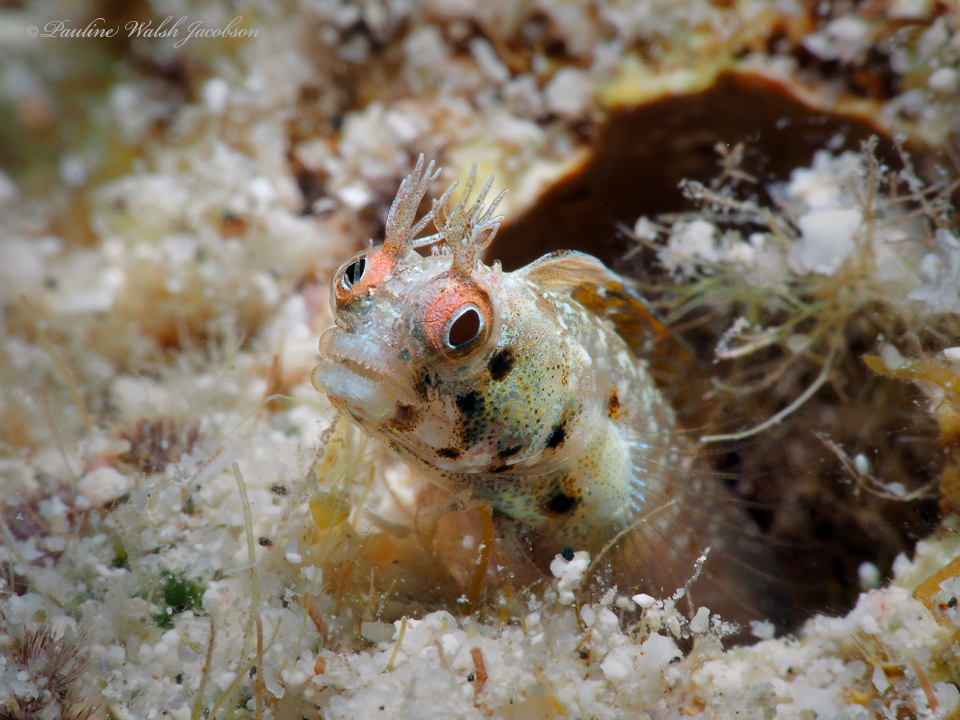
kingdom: Animalia
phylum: Chordata
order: Perciformes
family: Chaenopsidae
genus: Acanthemblemaria
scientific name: Acanthemblemaria aspera
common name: Roughhead blenny
